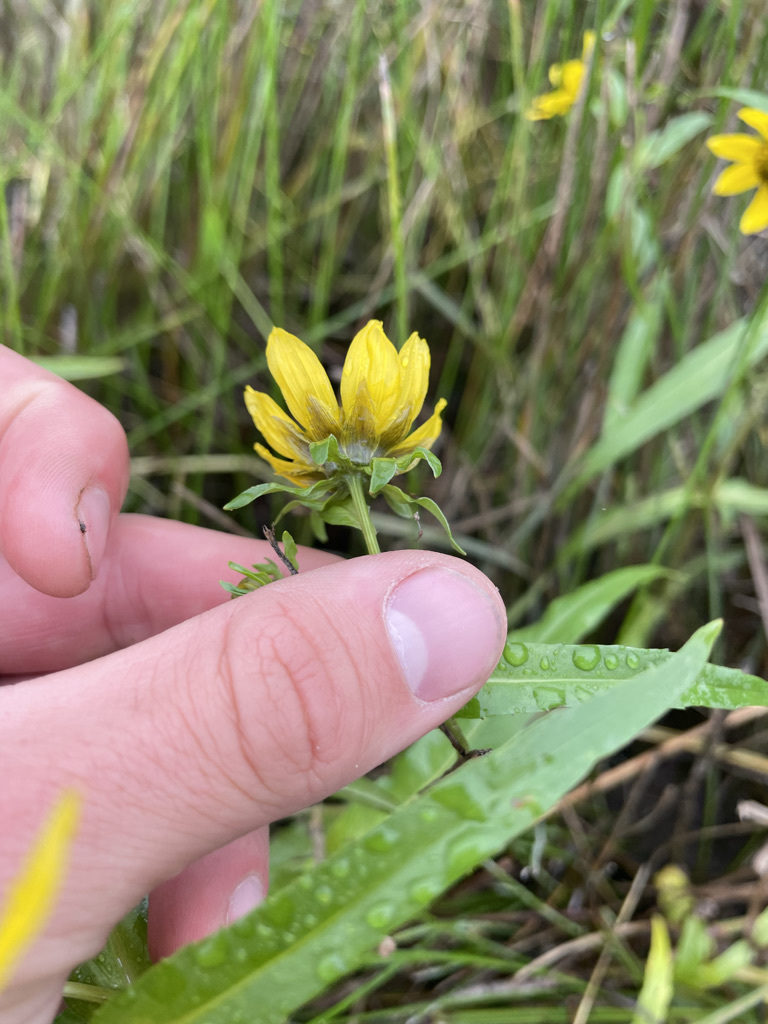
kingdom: Plantae
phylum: Tracheophyta
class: Magnoliopsida
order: Asterales
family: Asteraceae
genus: Bidens
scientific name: Bidens cernua
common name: Nodding bur-marigold
